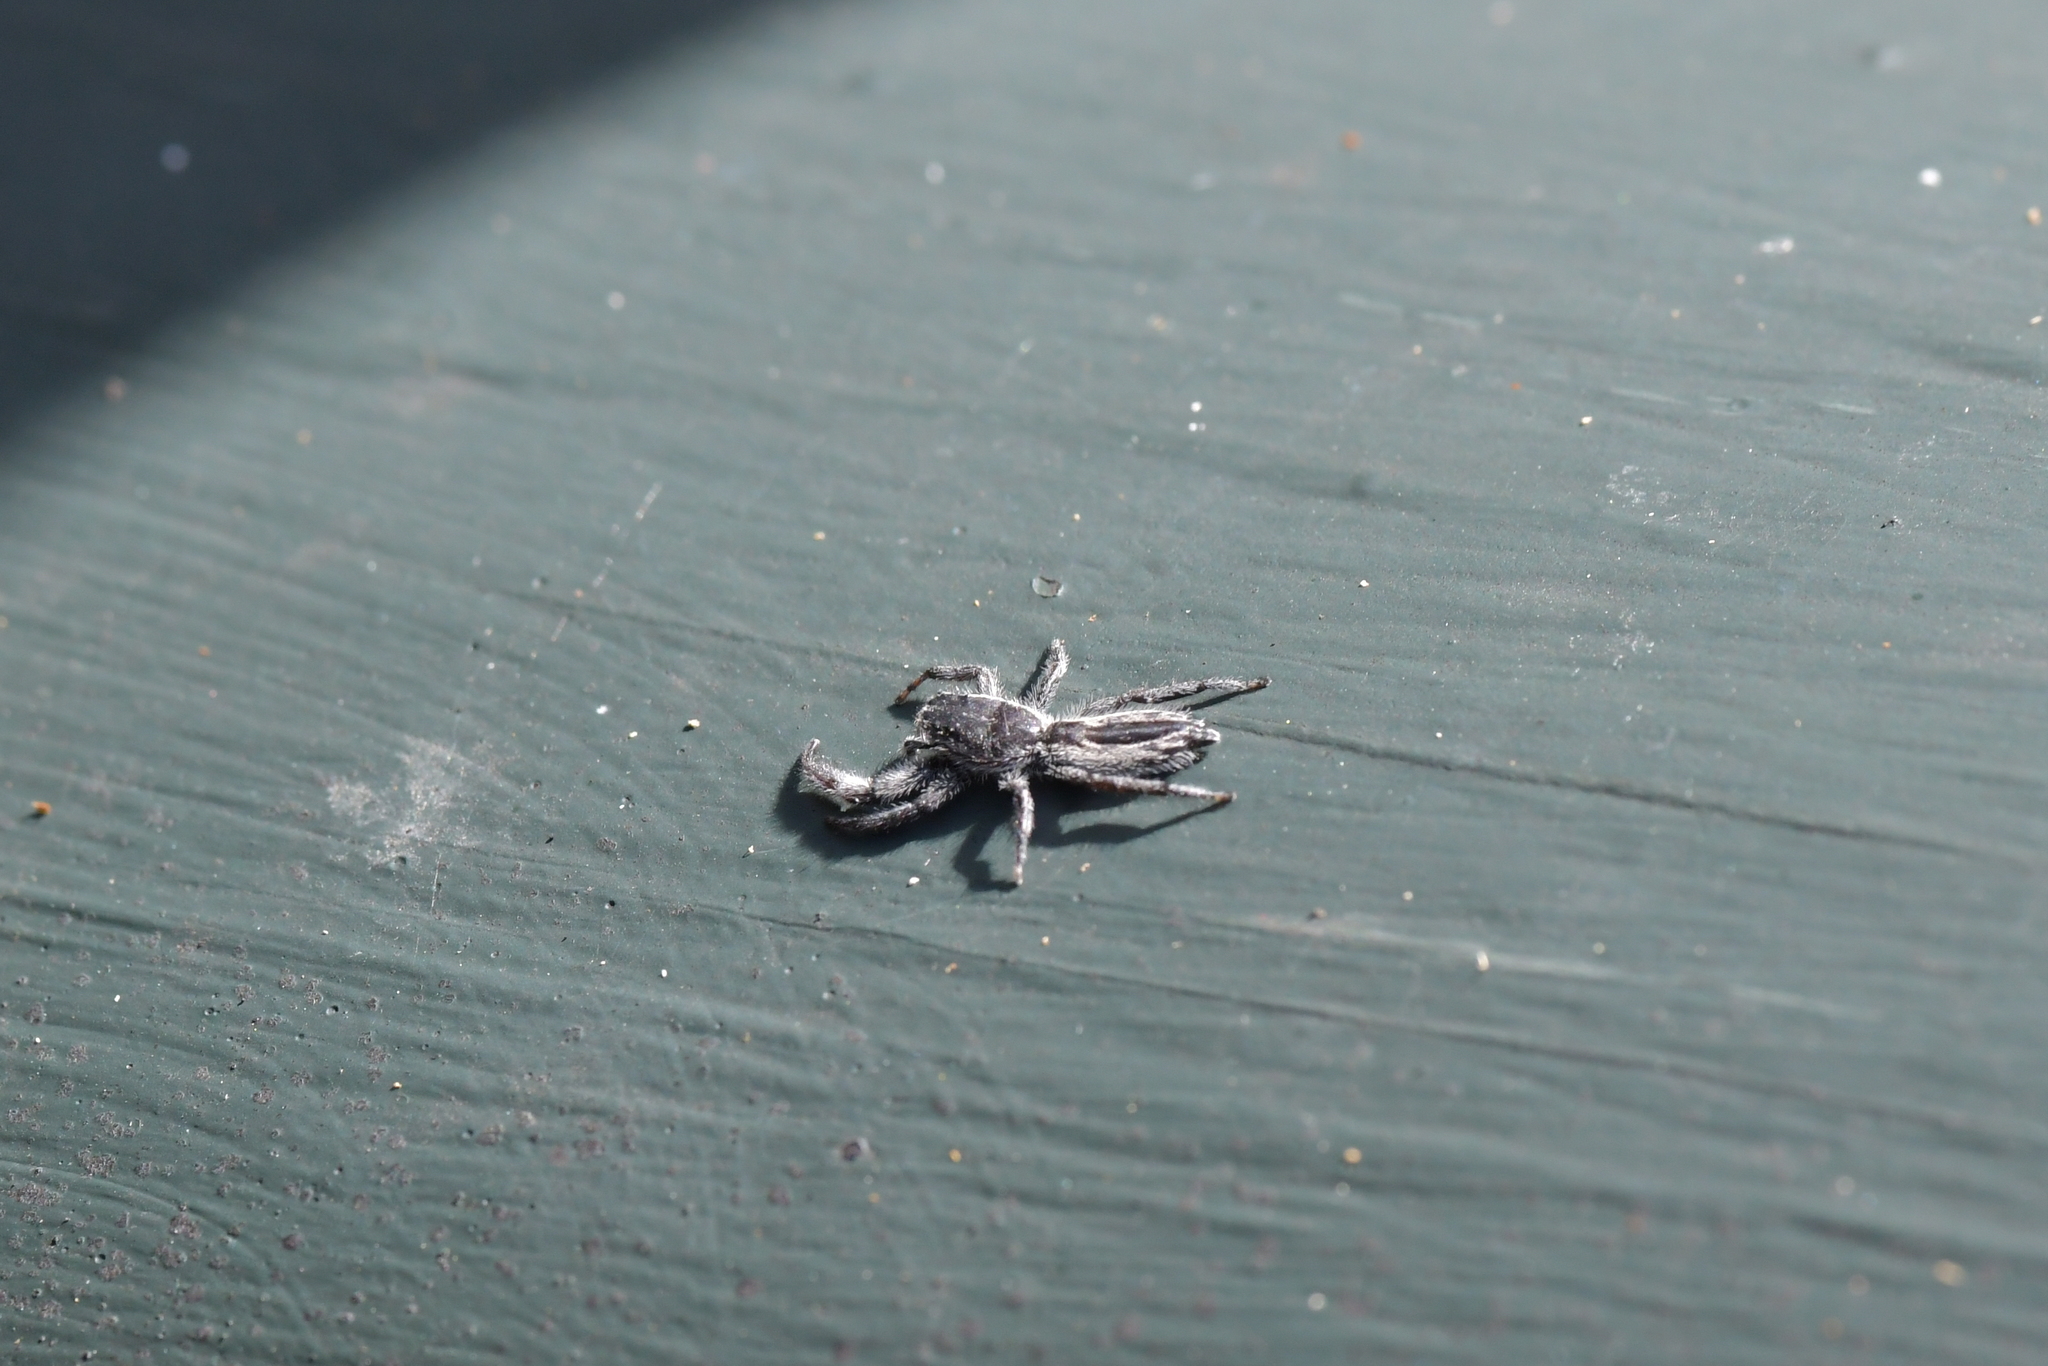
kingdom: Animalia
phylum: Arthropoda
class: Arachnida
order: Araneae
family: Salticidae
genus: Holoplatys
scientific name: Holoplatys apressus
